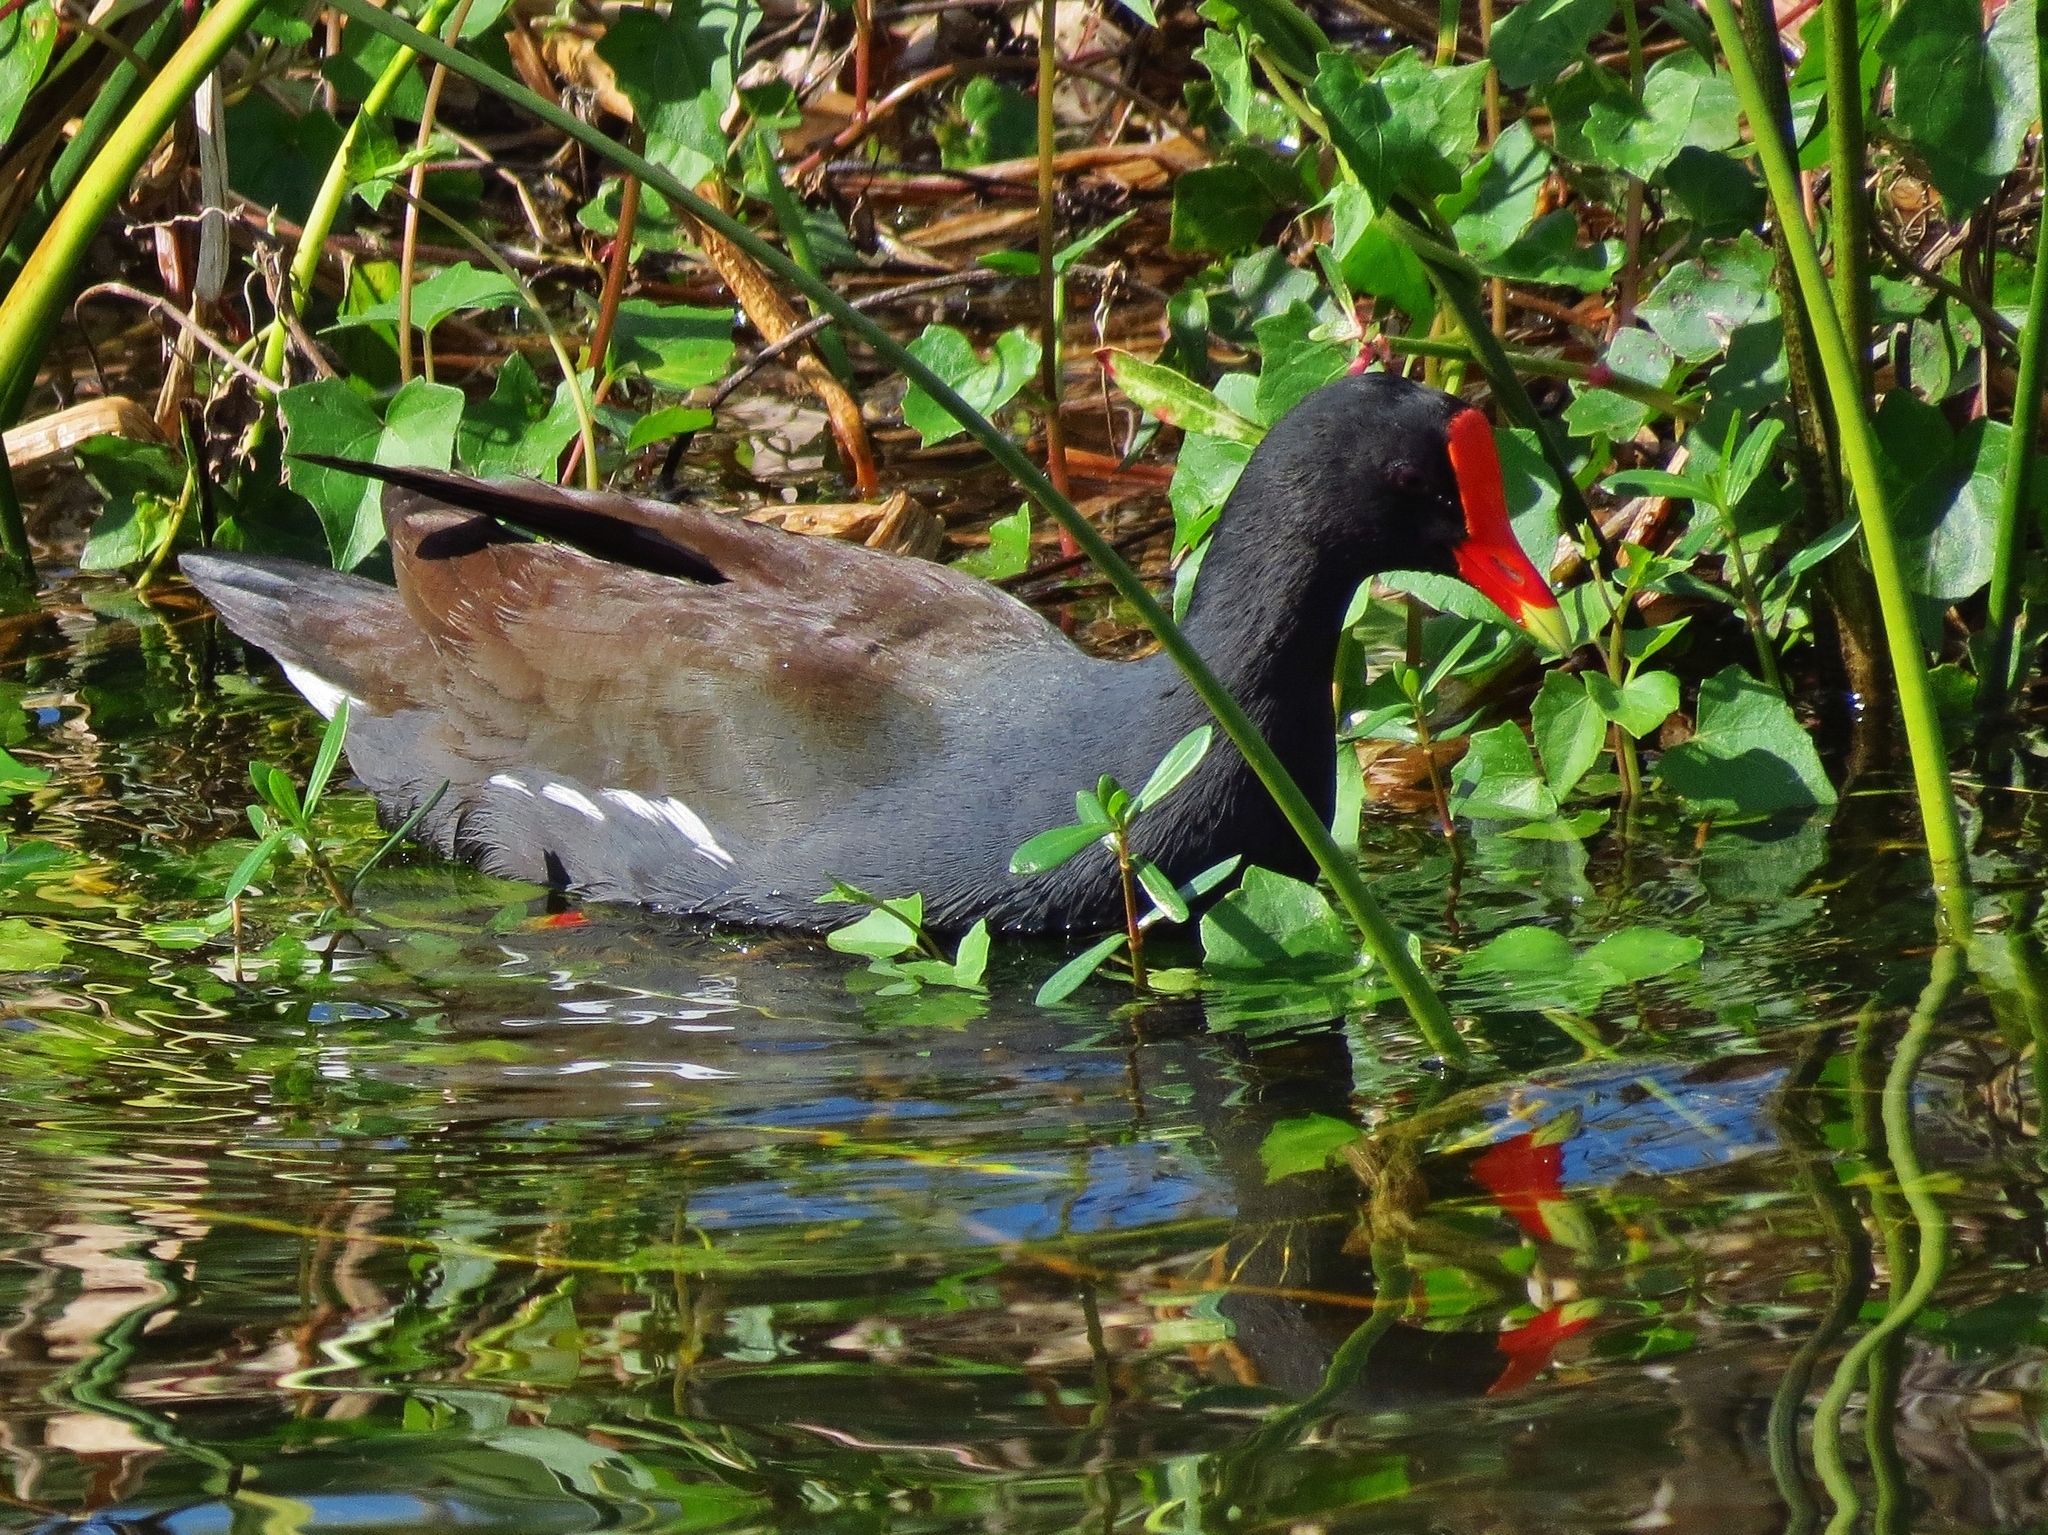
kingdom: Animalia
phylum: Chordata
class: Aves
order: Gruiformes
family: Rallidae
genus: Gallinula
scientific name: Gallinula chloropus
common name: Common moorhen
